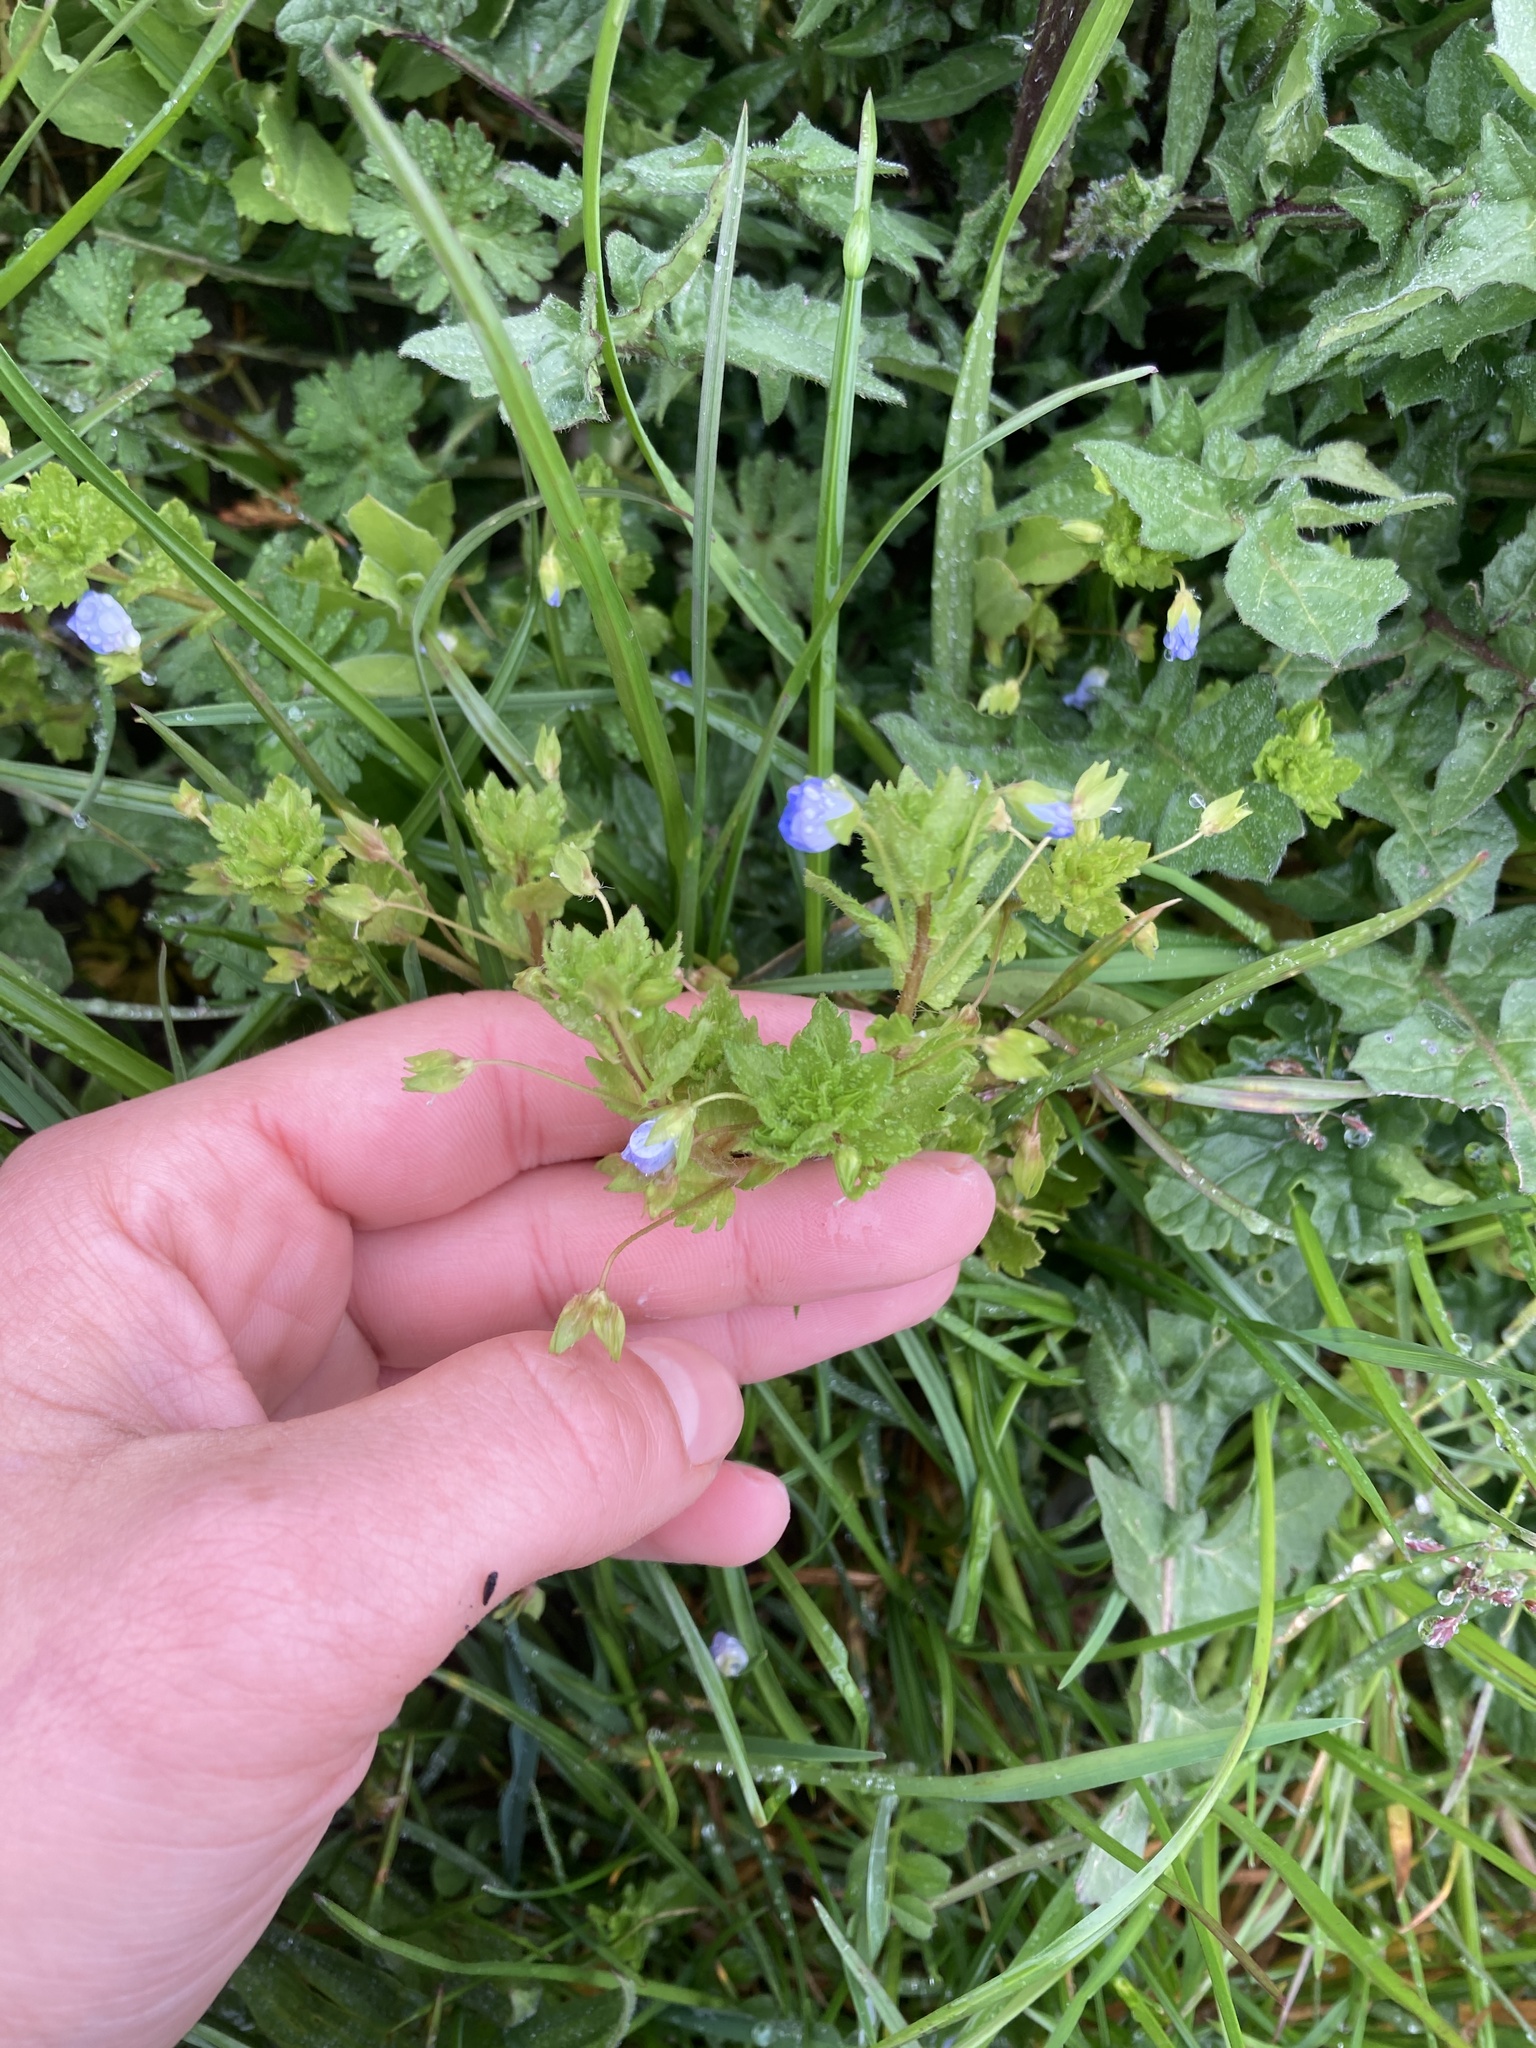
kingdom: Plantae
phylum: Tracheophyta
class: Magnoliopsida
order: Lamiales
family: Plantaginaceae
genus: Veronica
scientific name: Veronica persica
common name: Common field-speedwell
